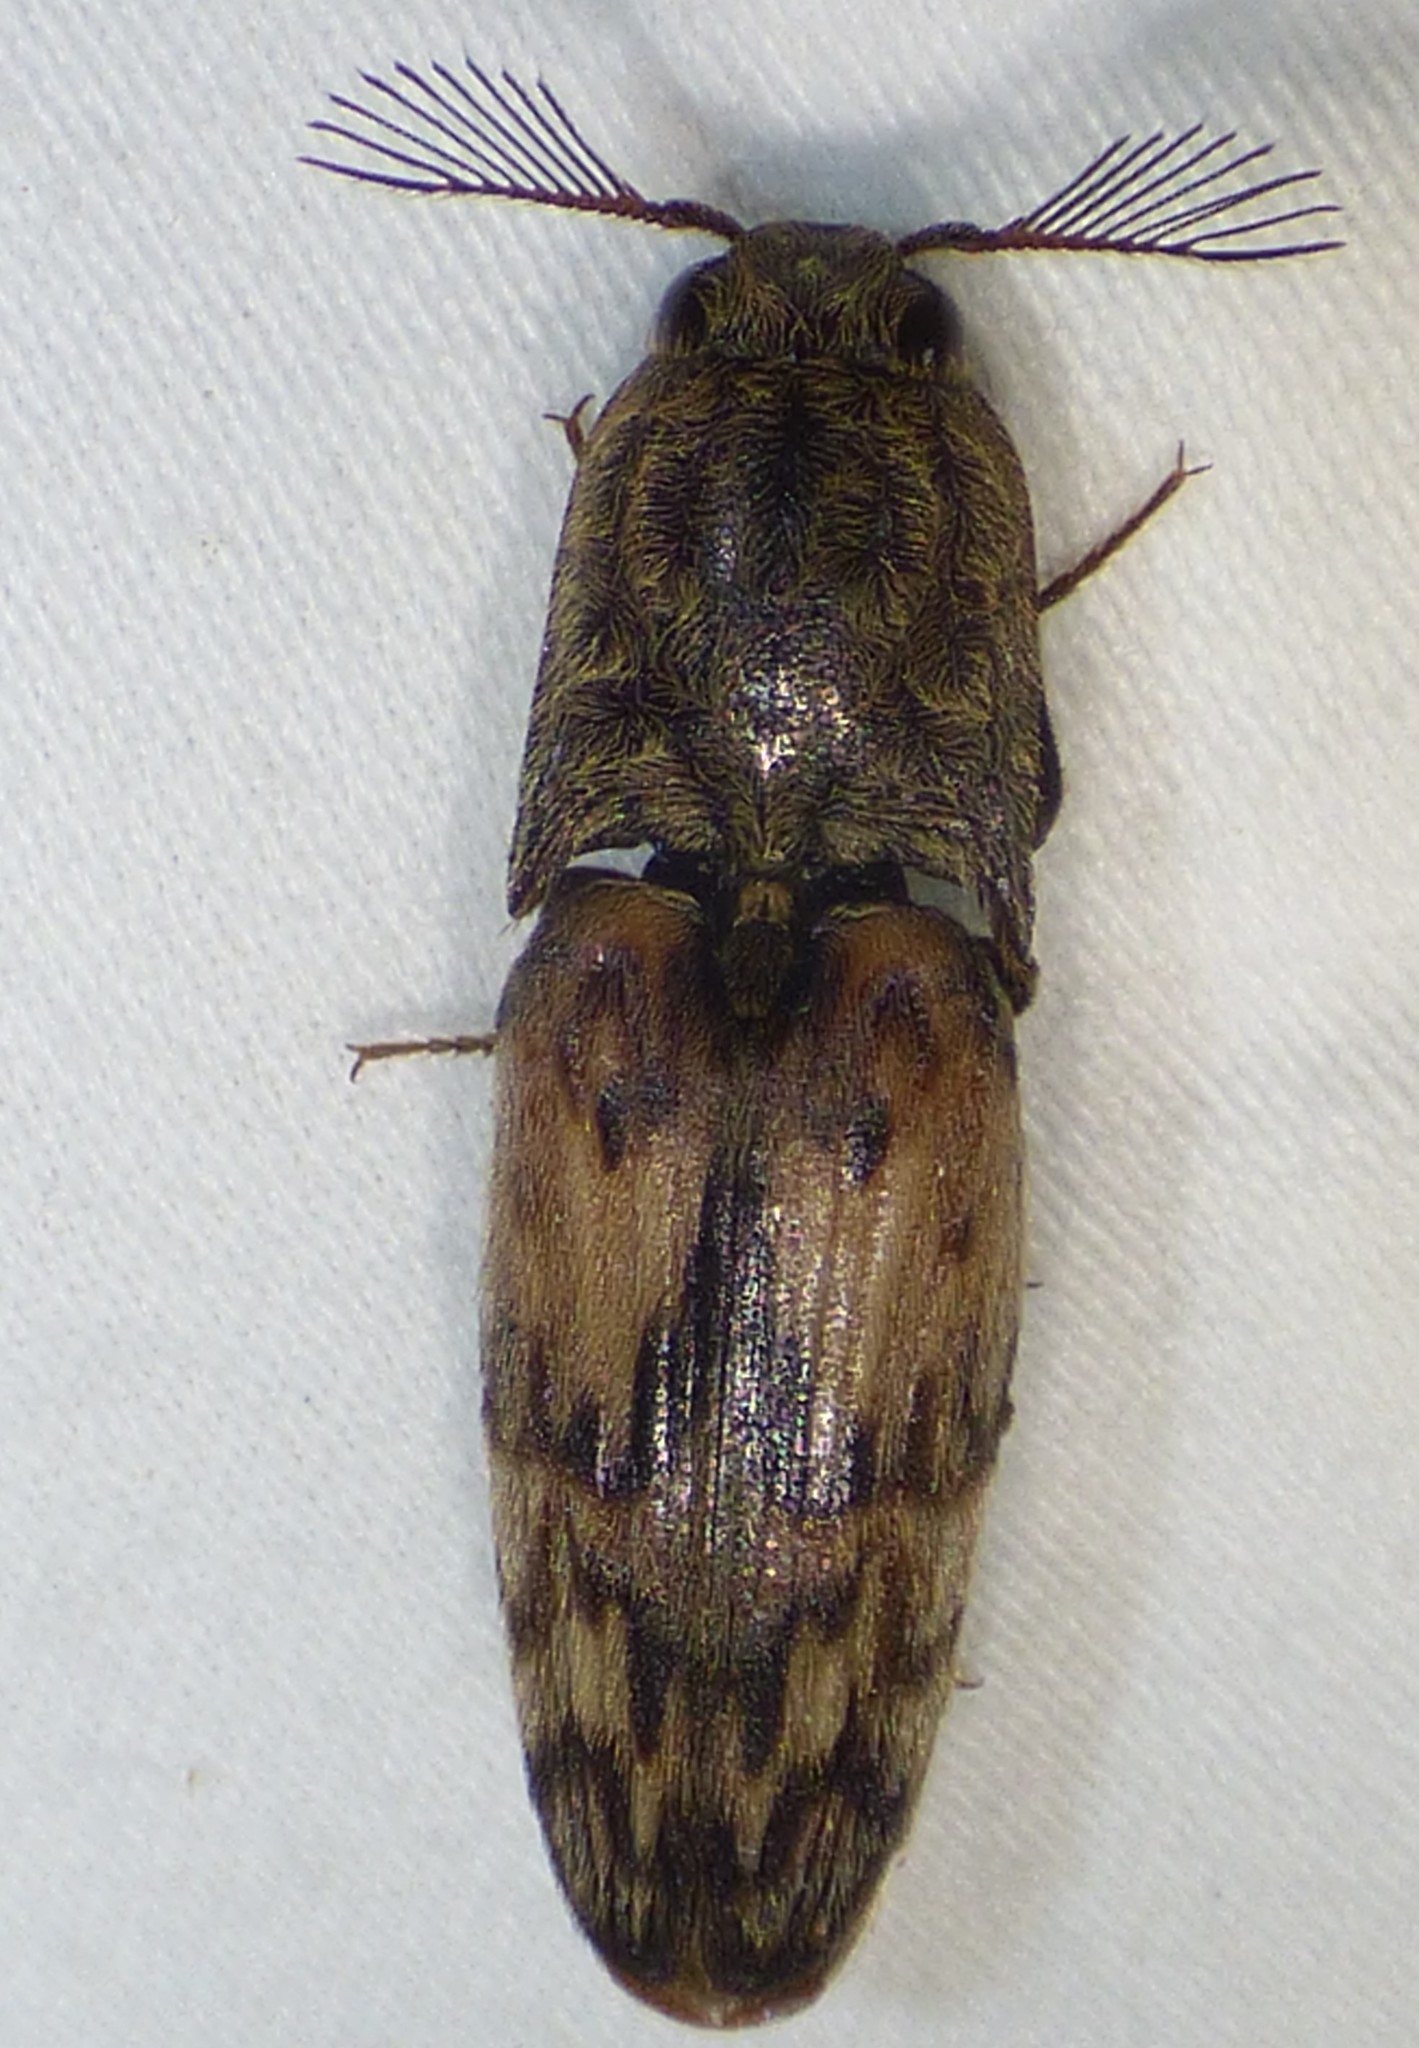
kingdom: Animalia
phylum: Arthropoda
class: Insecta
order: Coleoptera
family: Elateridae
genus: Pherhimius
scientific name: Pherhimius fascicularis
